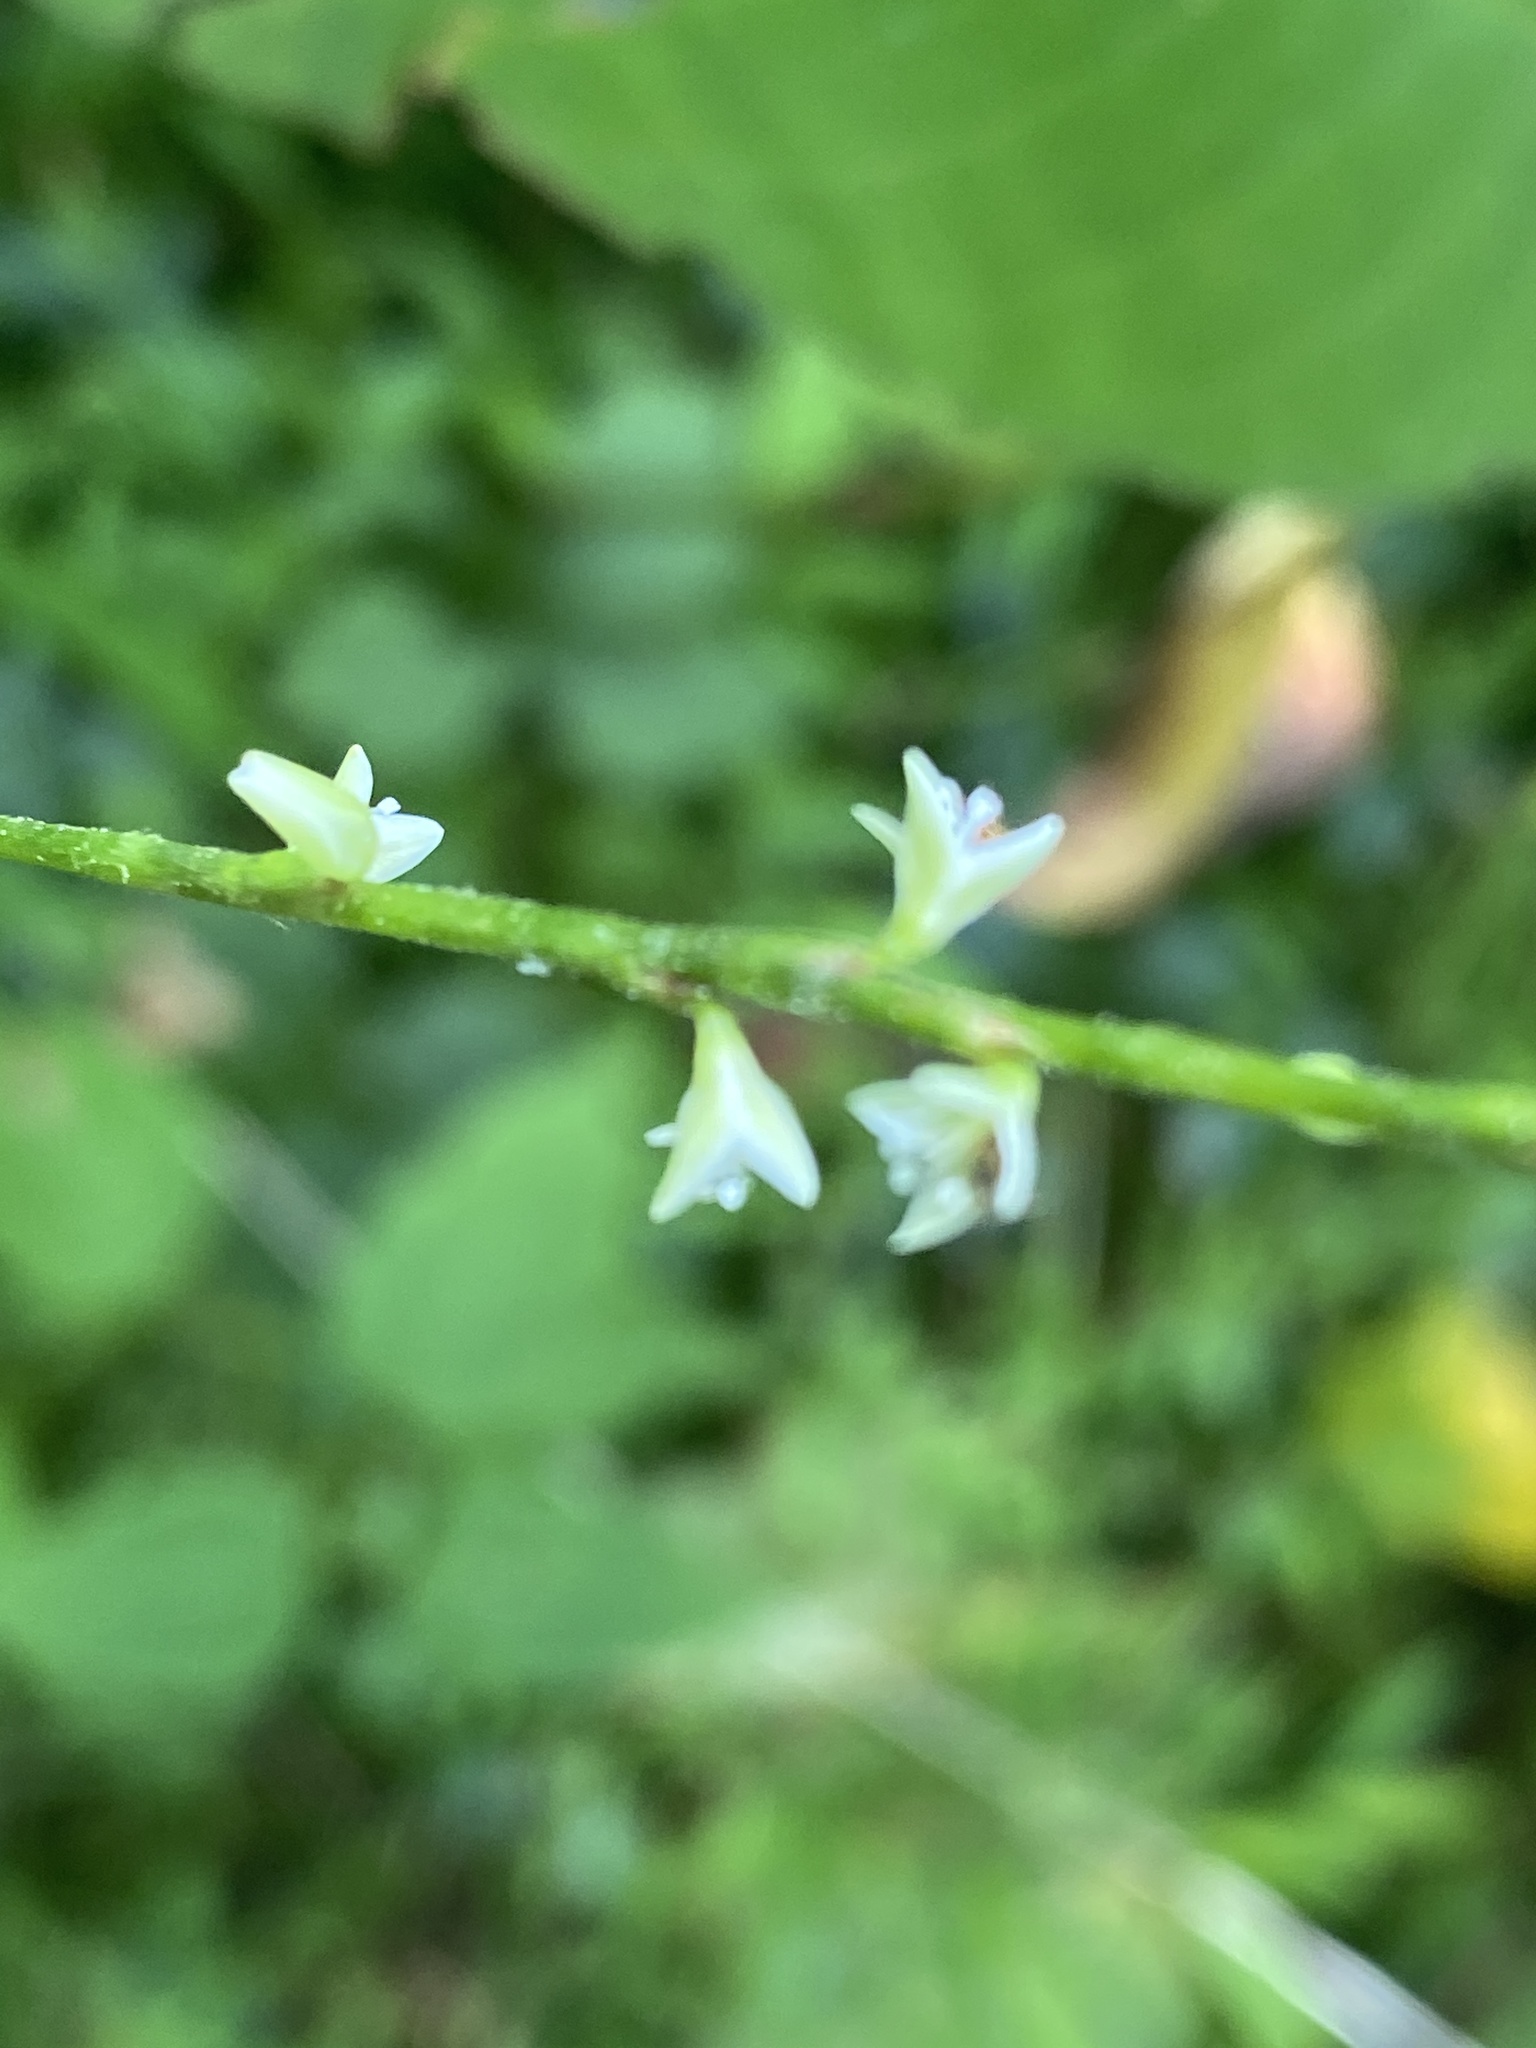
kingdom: Plantae
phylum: Tracheophyta
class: Magnoliopsida
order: Caryophyllales
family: Polygonaceae
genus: Persicaria
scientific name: Persicaria virginiana
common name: Jumpseed
